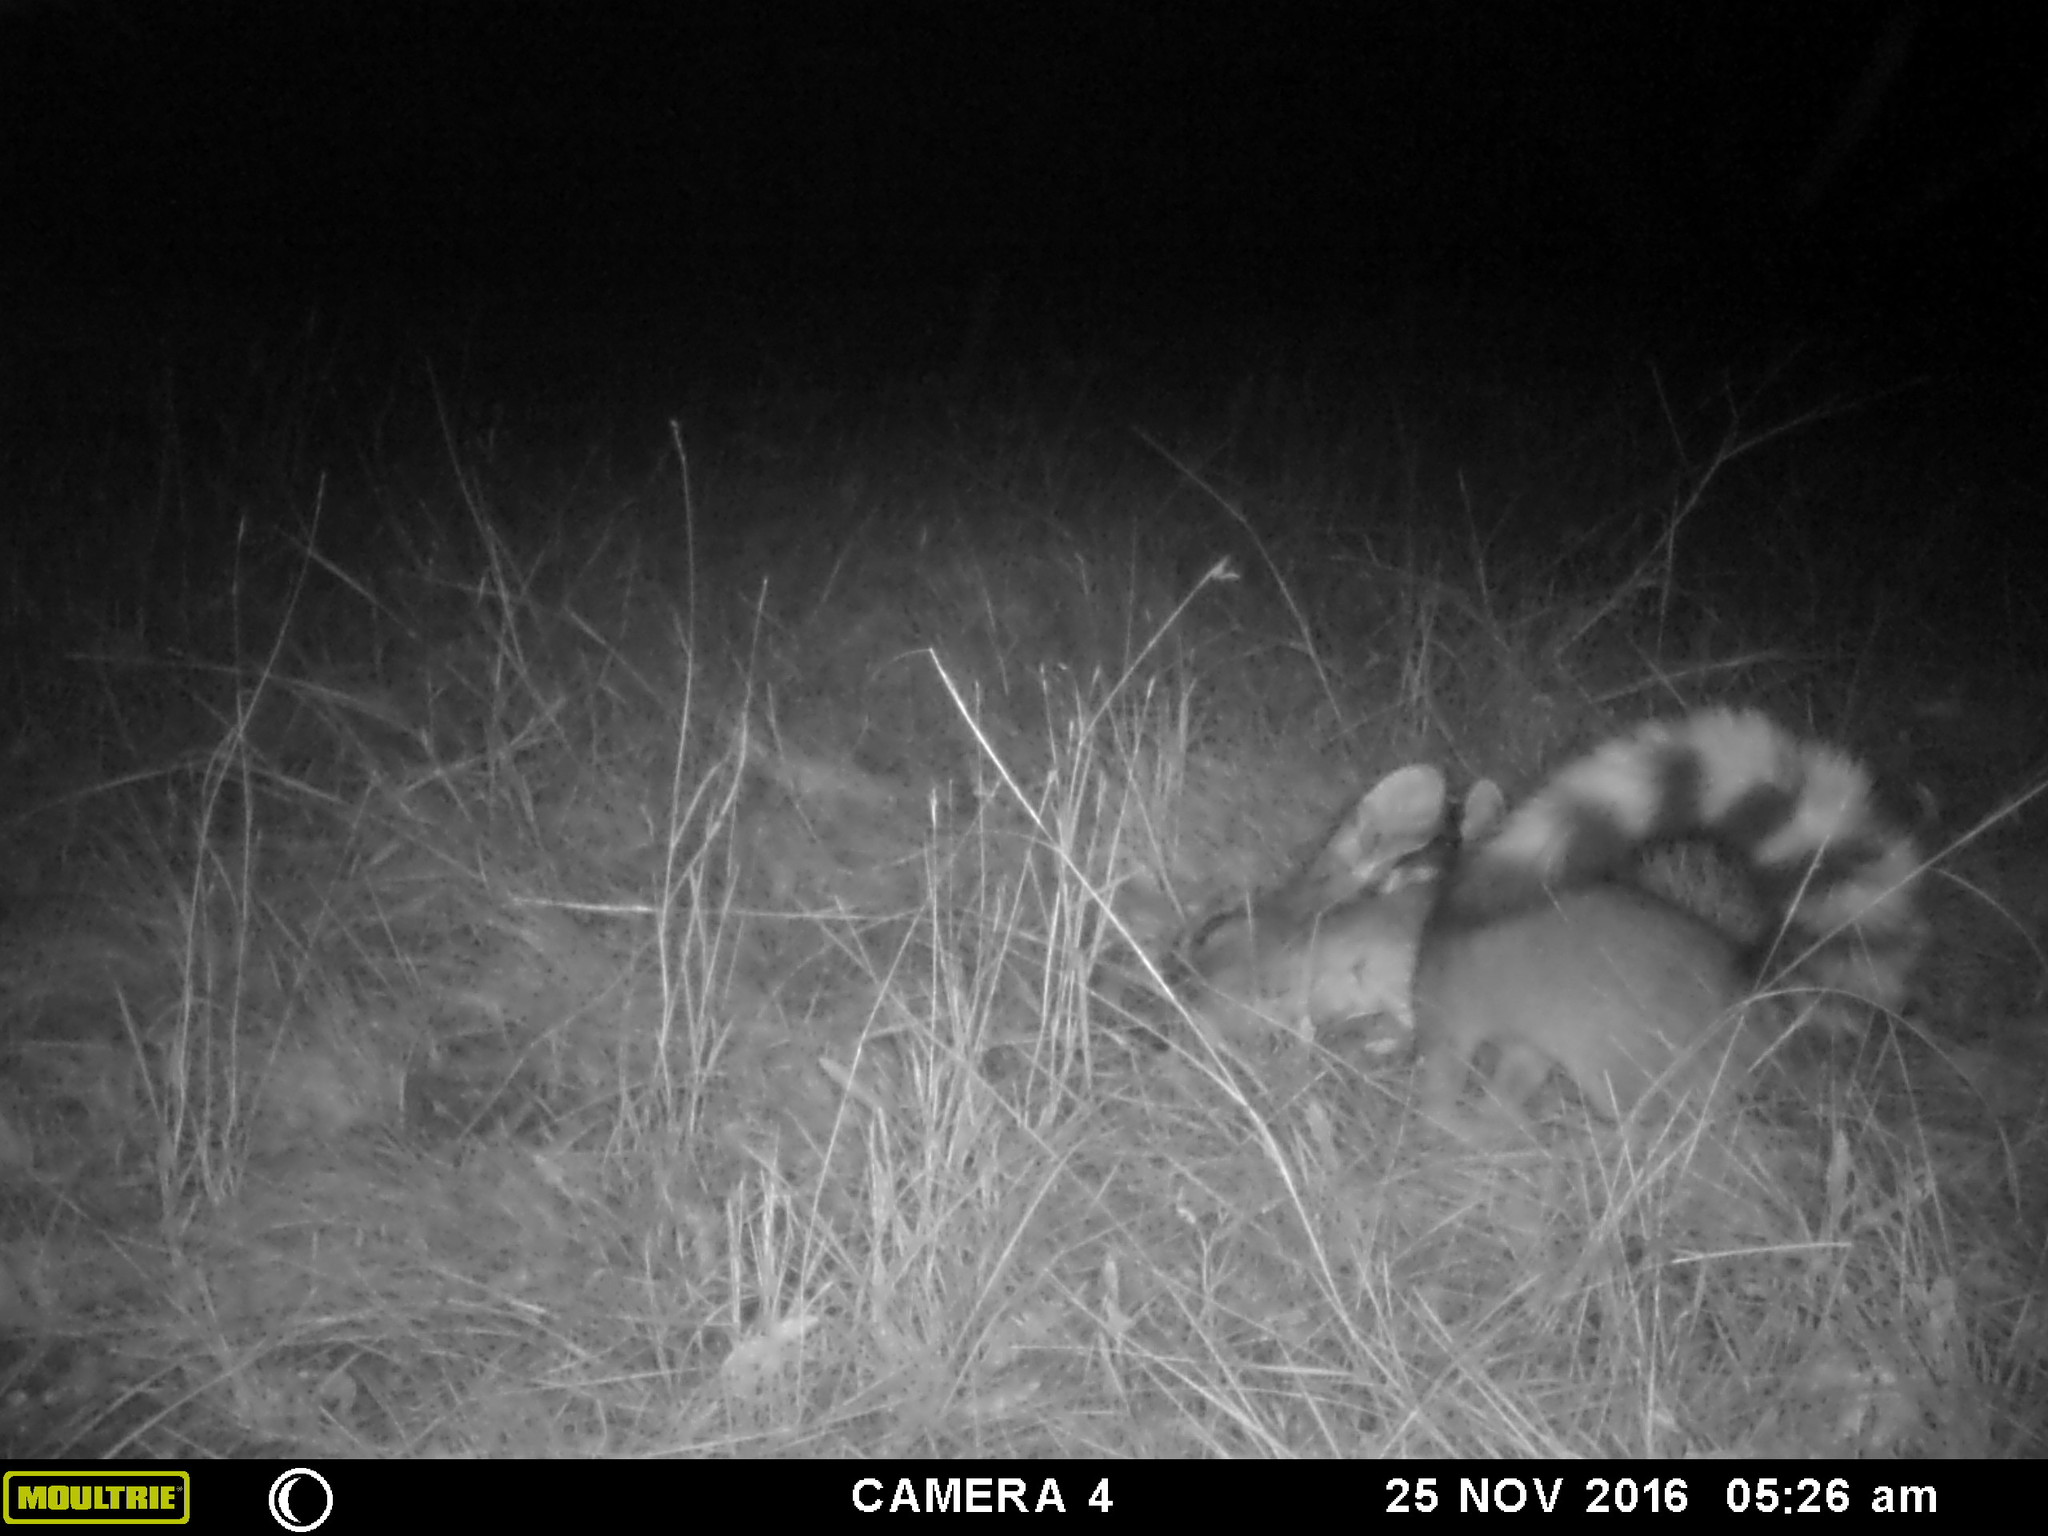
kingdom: Animalia
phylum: Chordata
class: Mammalia
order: Carnivora
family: Procyonidae
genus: Bassariscus
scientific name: Bassariscus astutus
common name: Ringtail
